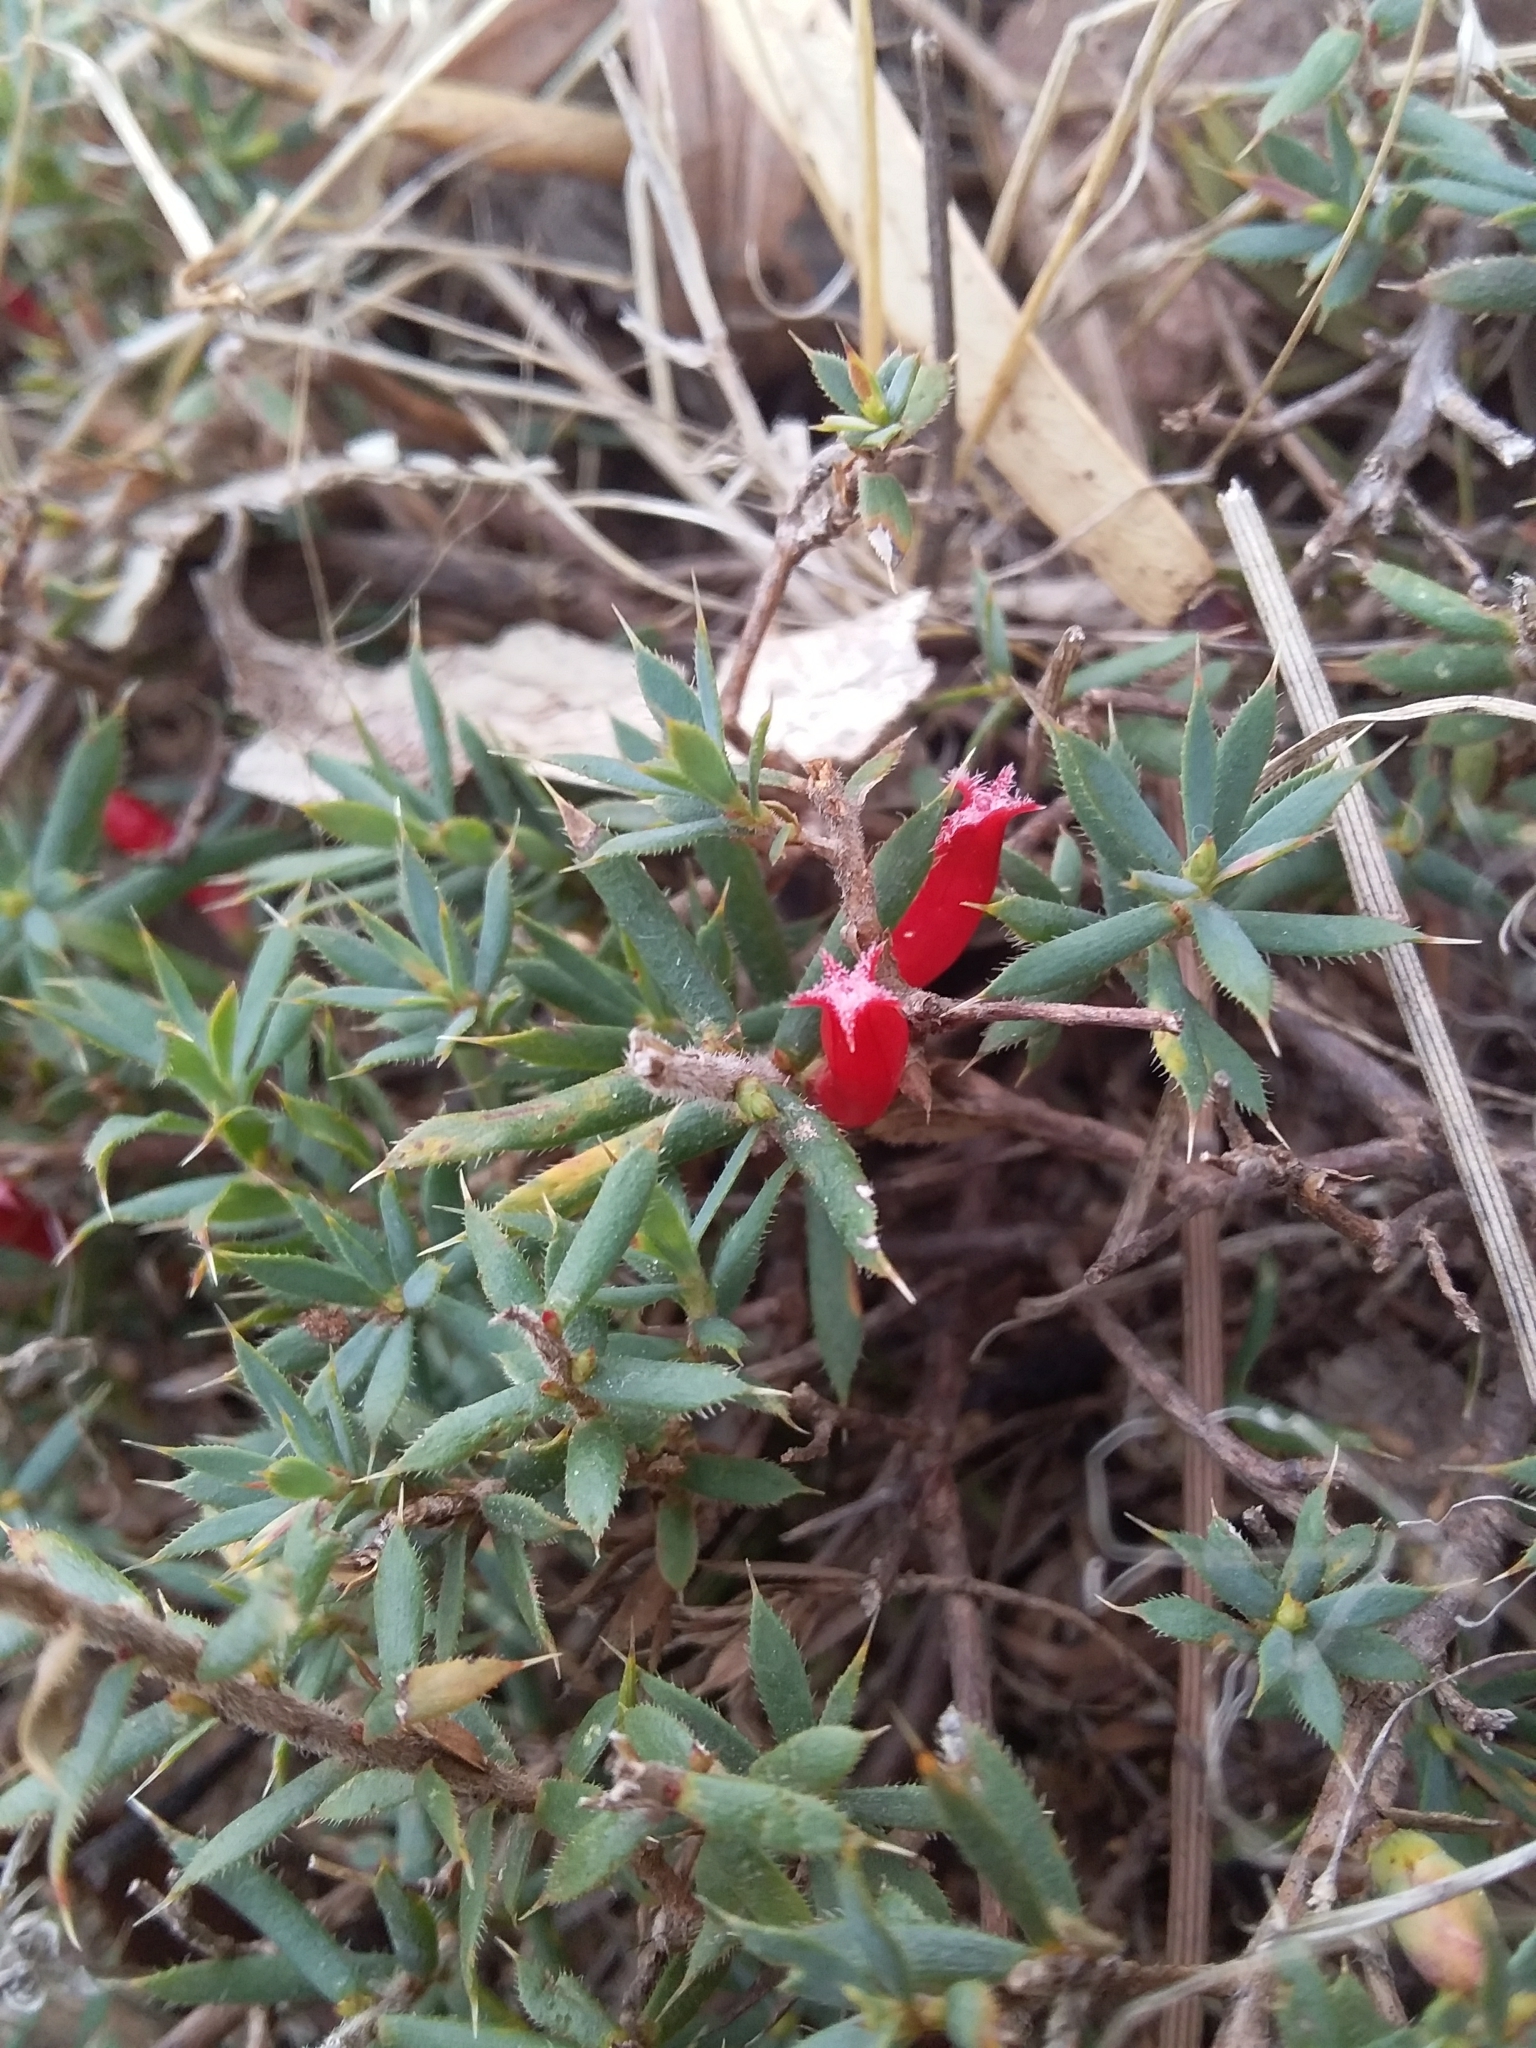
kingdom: Plantae
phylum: Tracheophyta
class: Magnoliopsida
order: Ericales
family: Ericaceae
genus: Styphelia
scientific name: Styphelia humifusa
